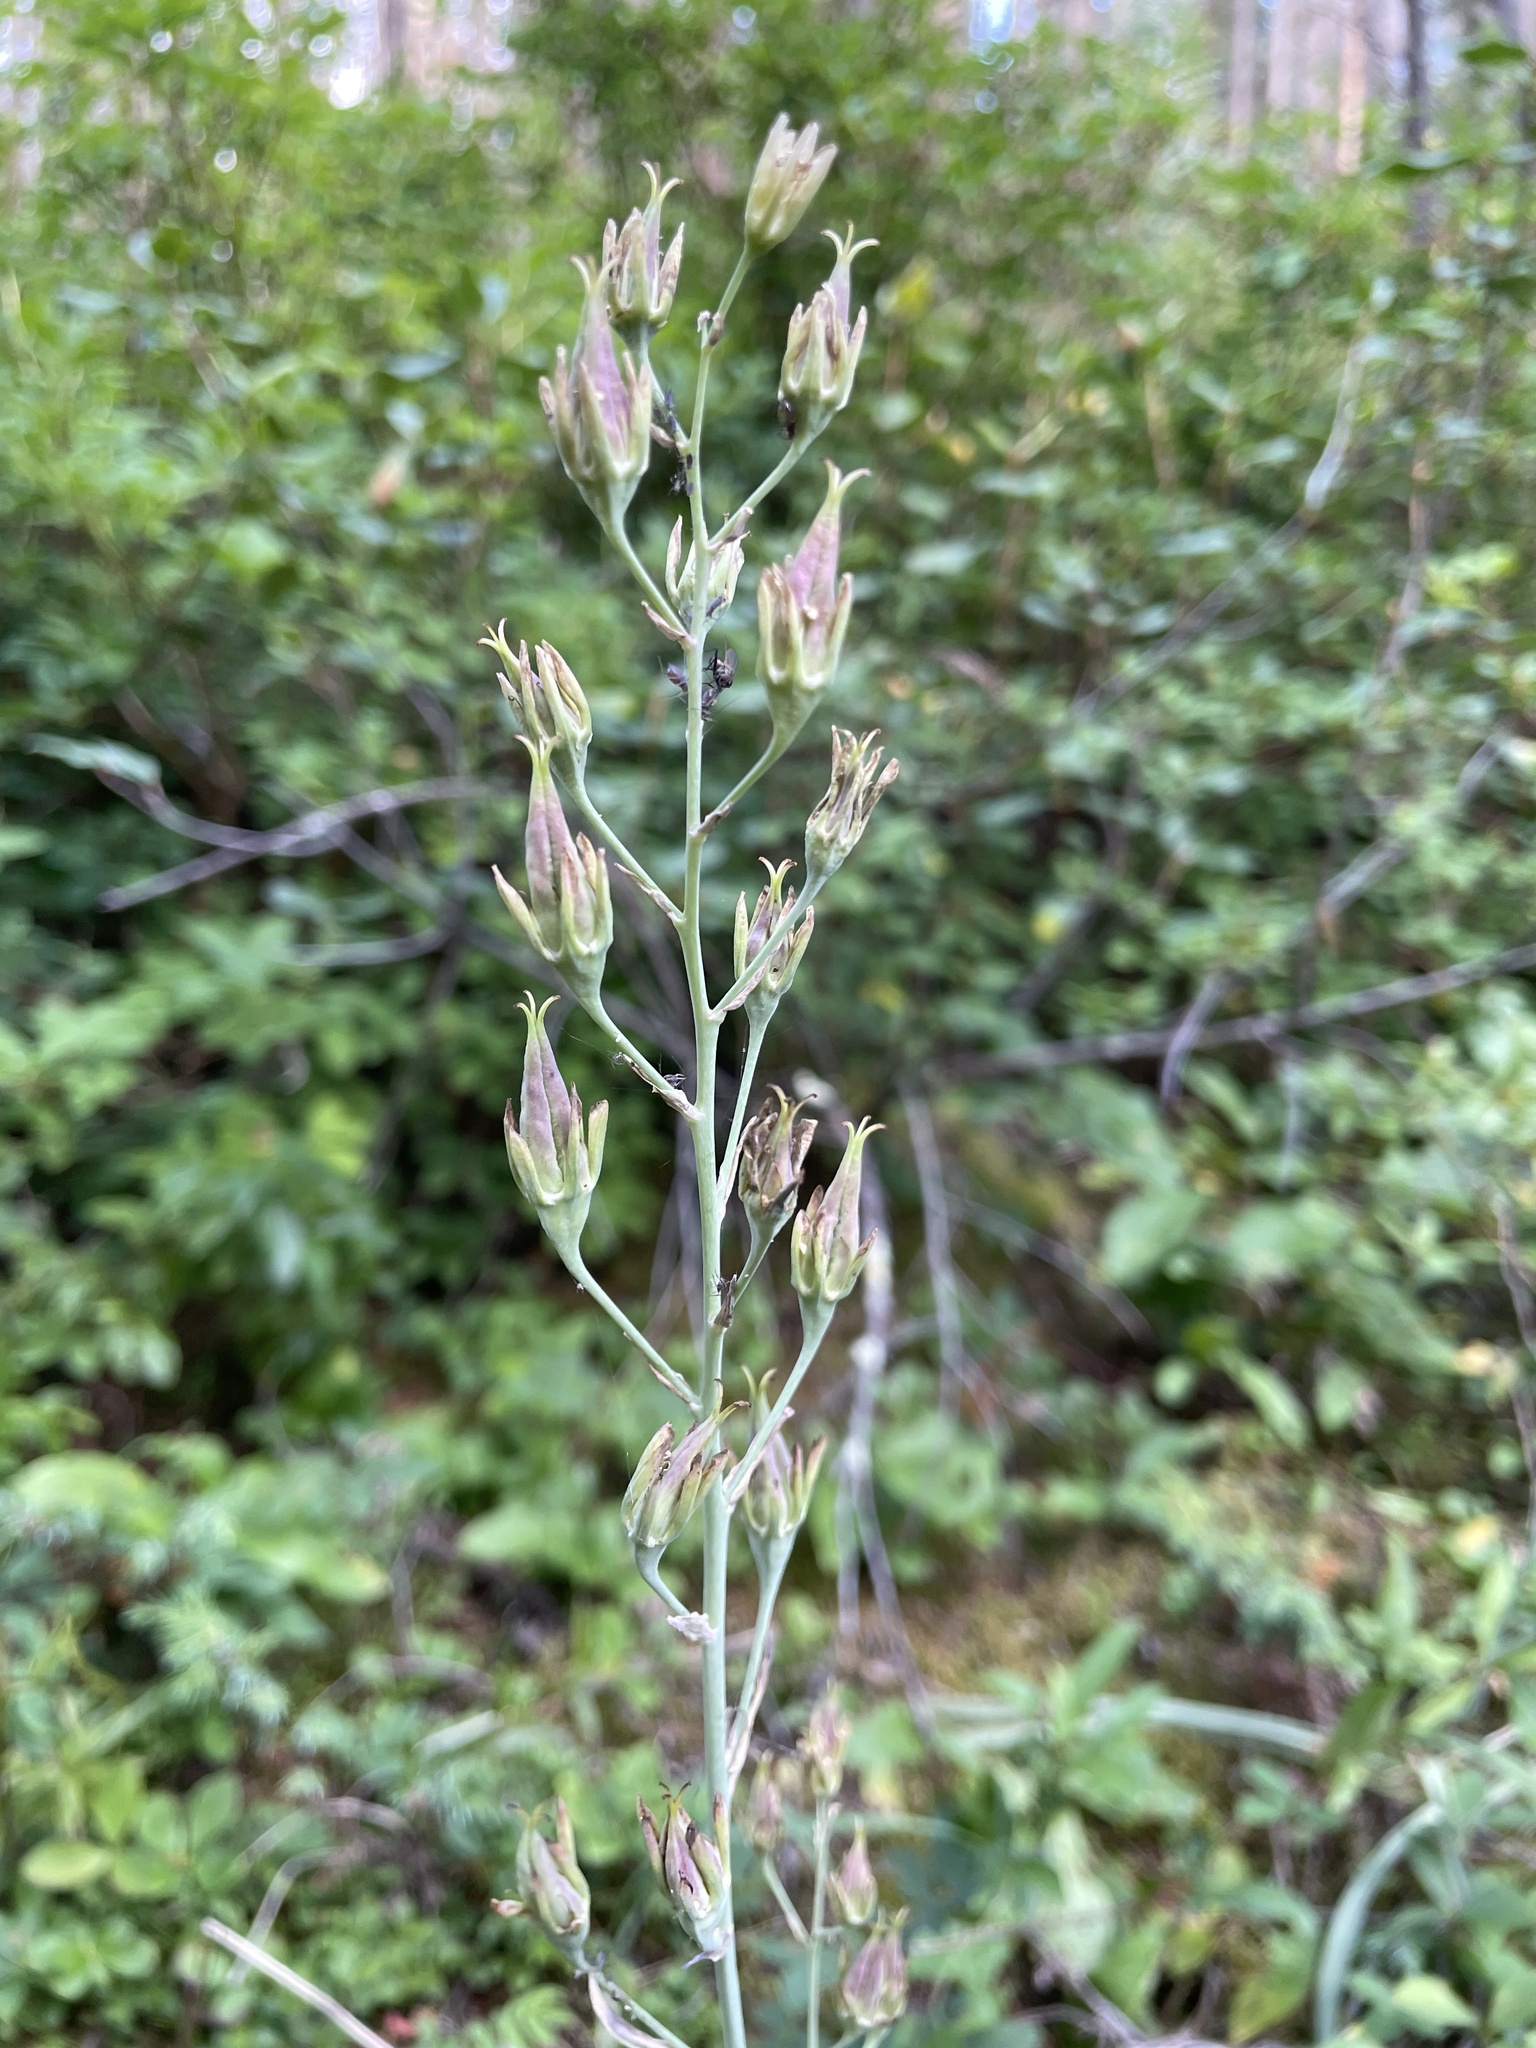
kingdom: Plantae
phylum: Tracheophyta
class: Liliopsida
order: Liliales
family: Melanthiaceae
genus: Anticlea
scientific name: Anticlea elegans
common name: Mountain death camas
